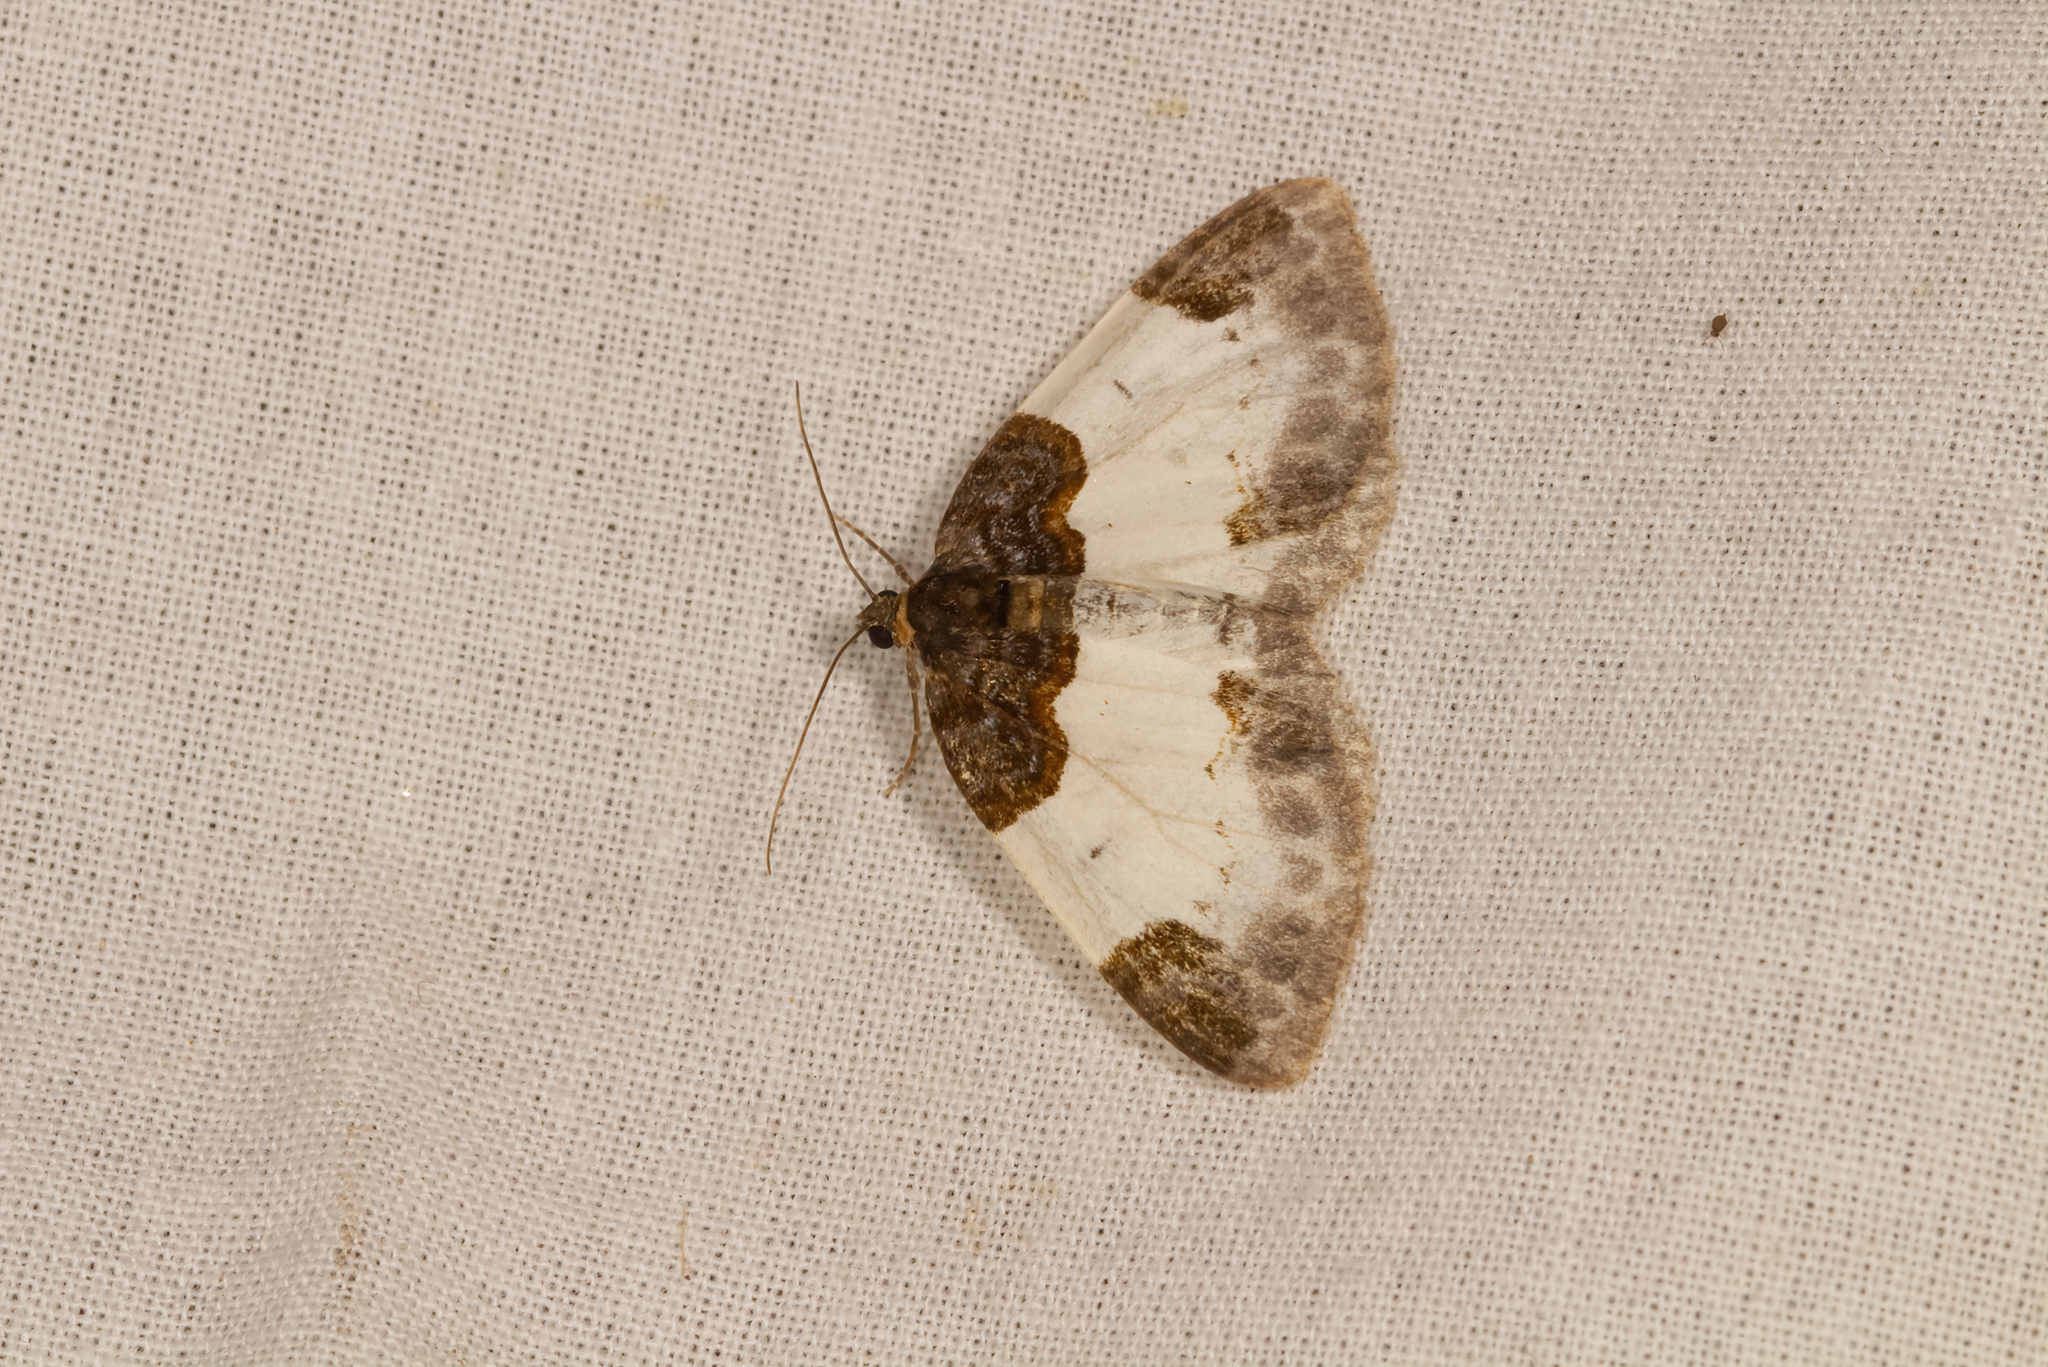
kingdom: Animalia
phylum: Arthropoda
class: Insecta
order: Lepidoptera
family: Geometridae
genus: Mesoleuca
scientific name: Mesoleuca albicillata
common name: Beautiful carpet
